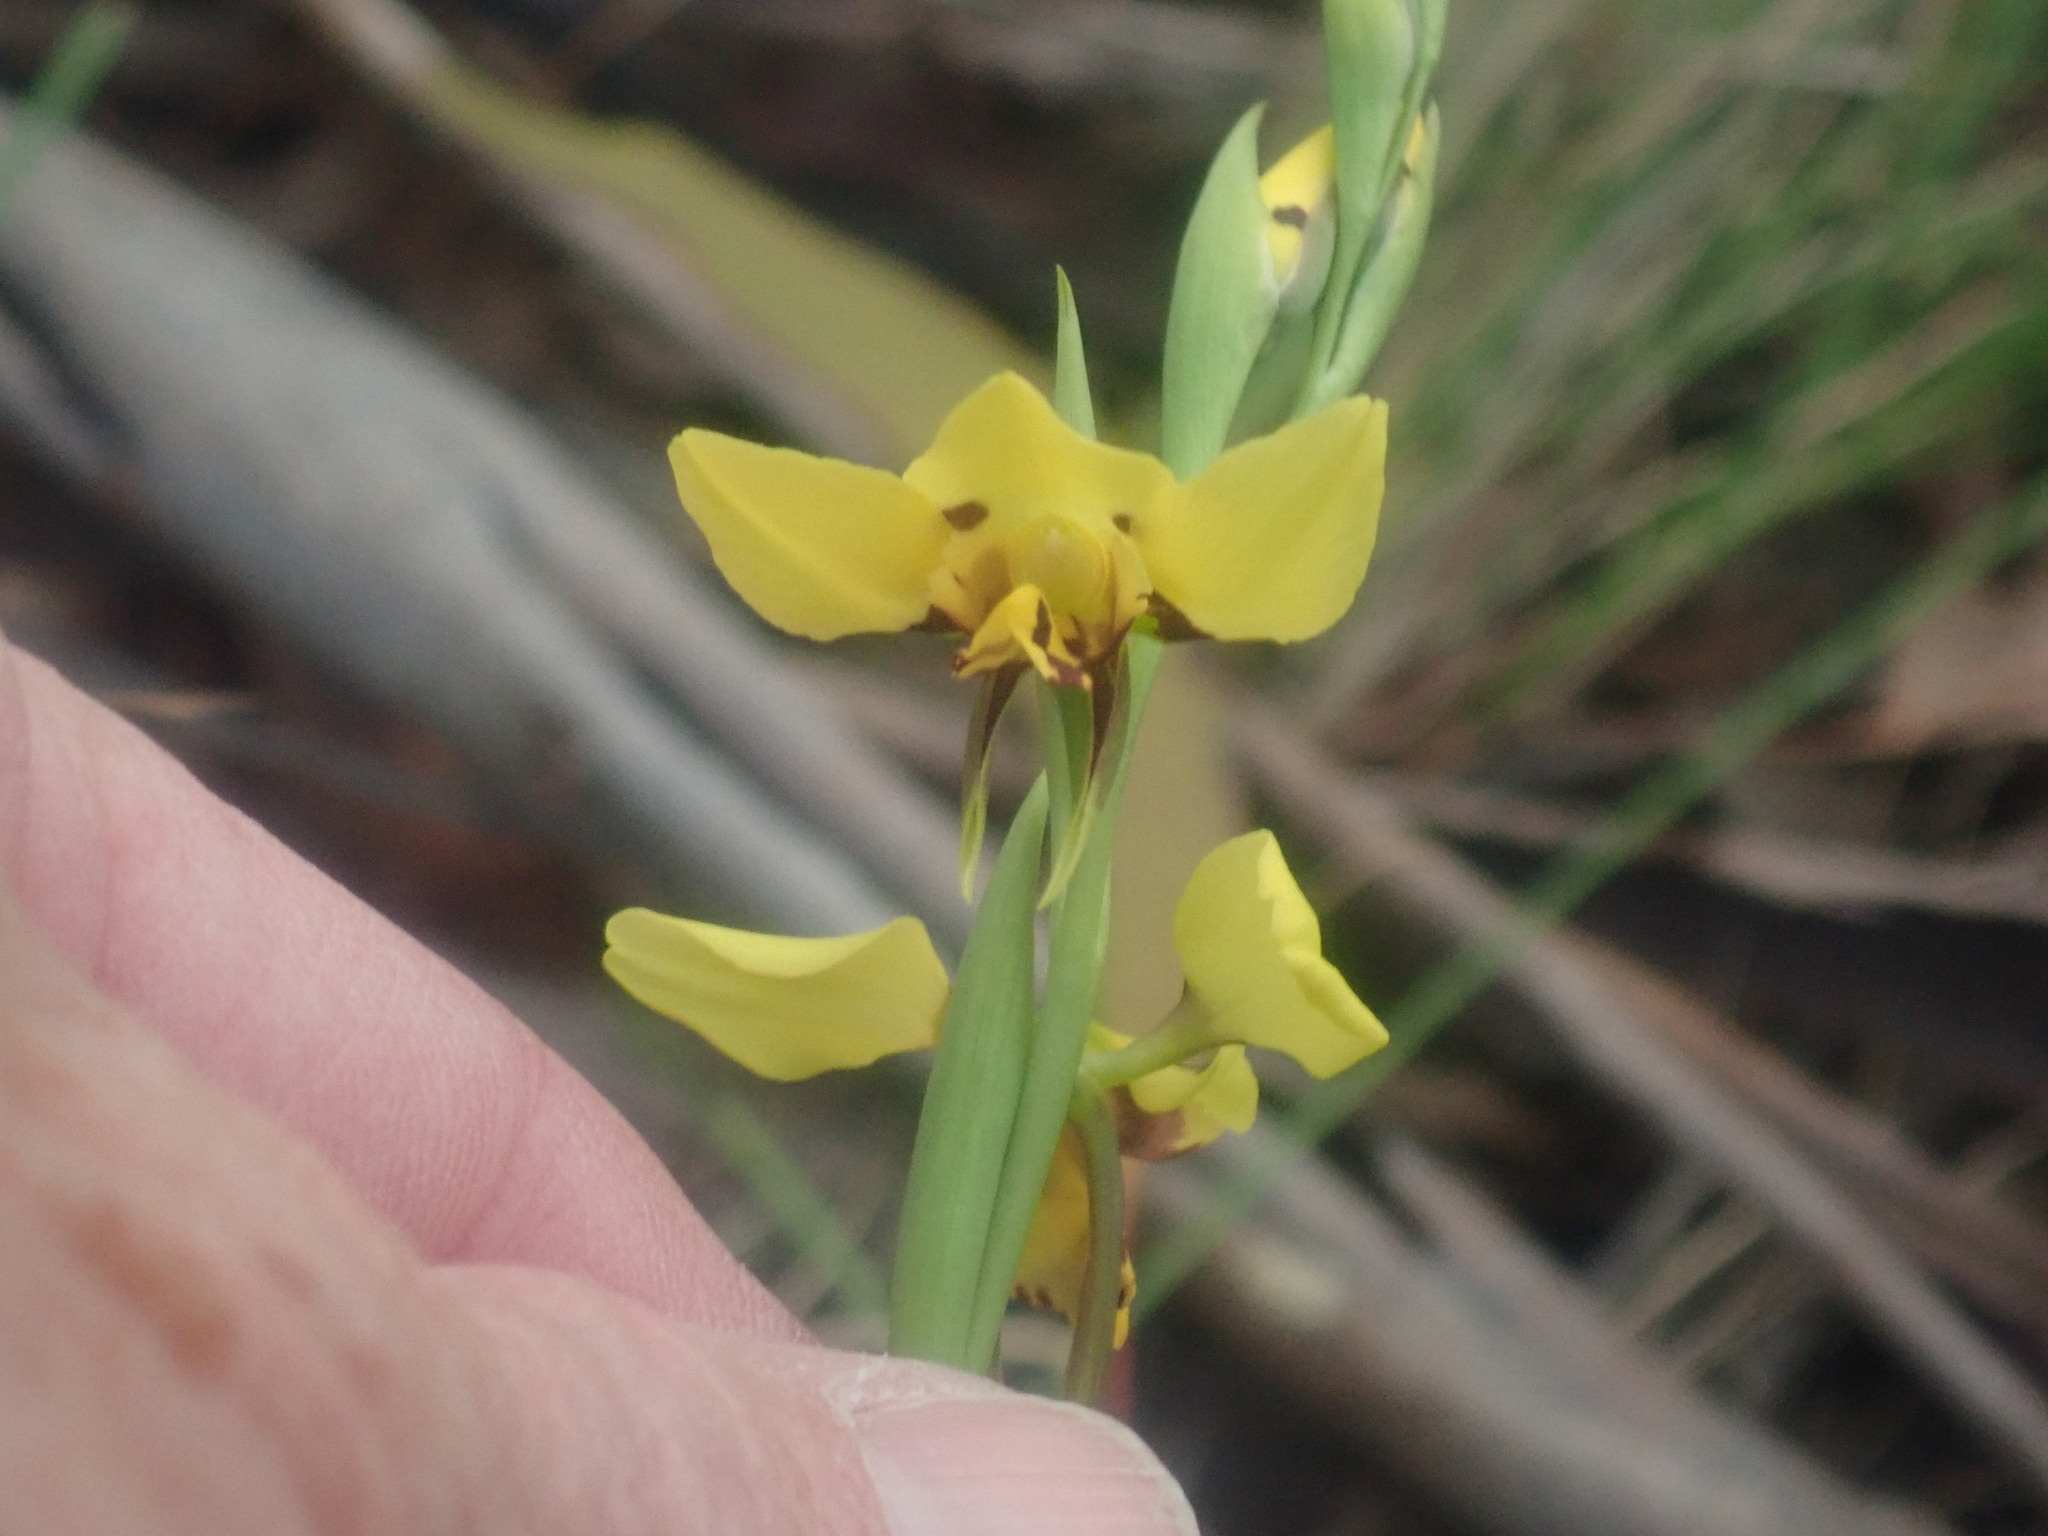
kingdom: Plantae
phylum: Tracheophyta
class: Liliopsida
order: Asparagales
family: Orchidaceae
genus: Diuris
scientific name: Diuris sulphurea
